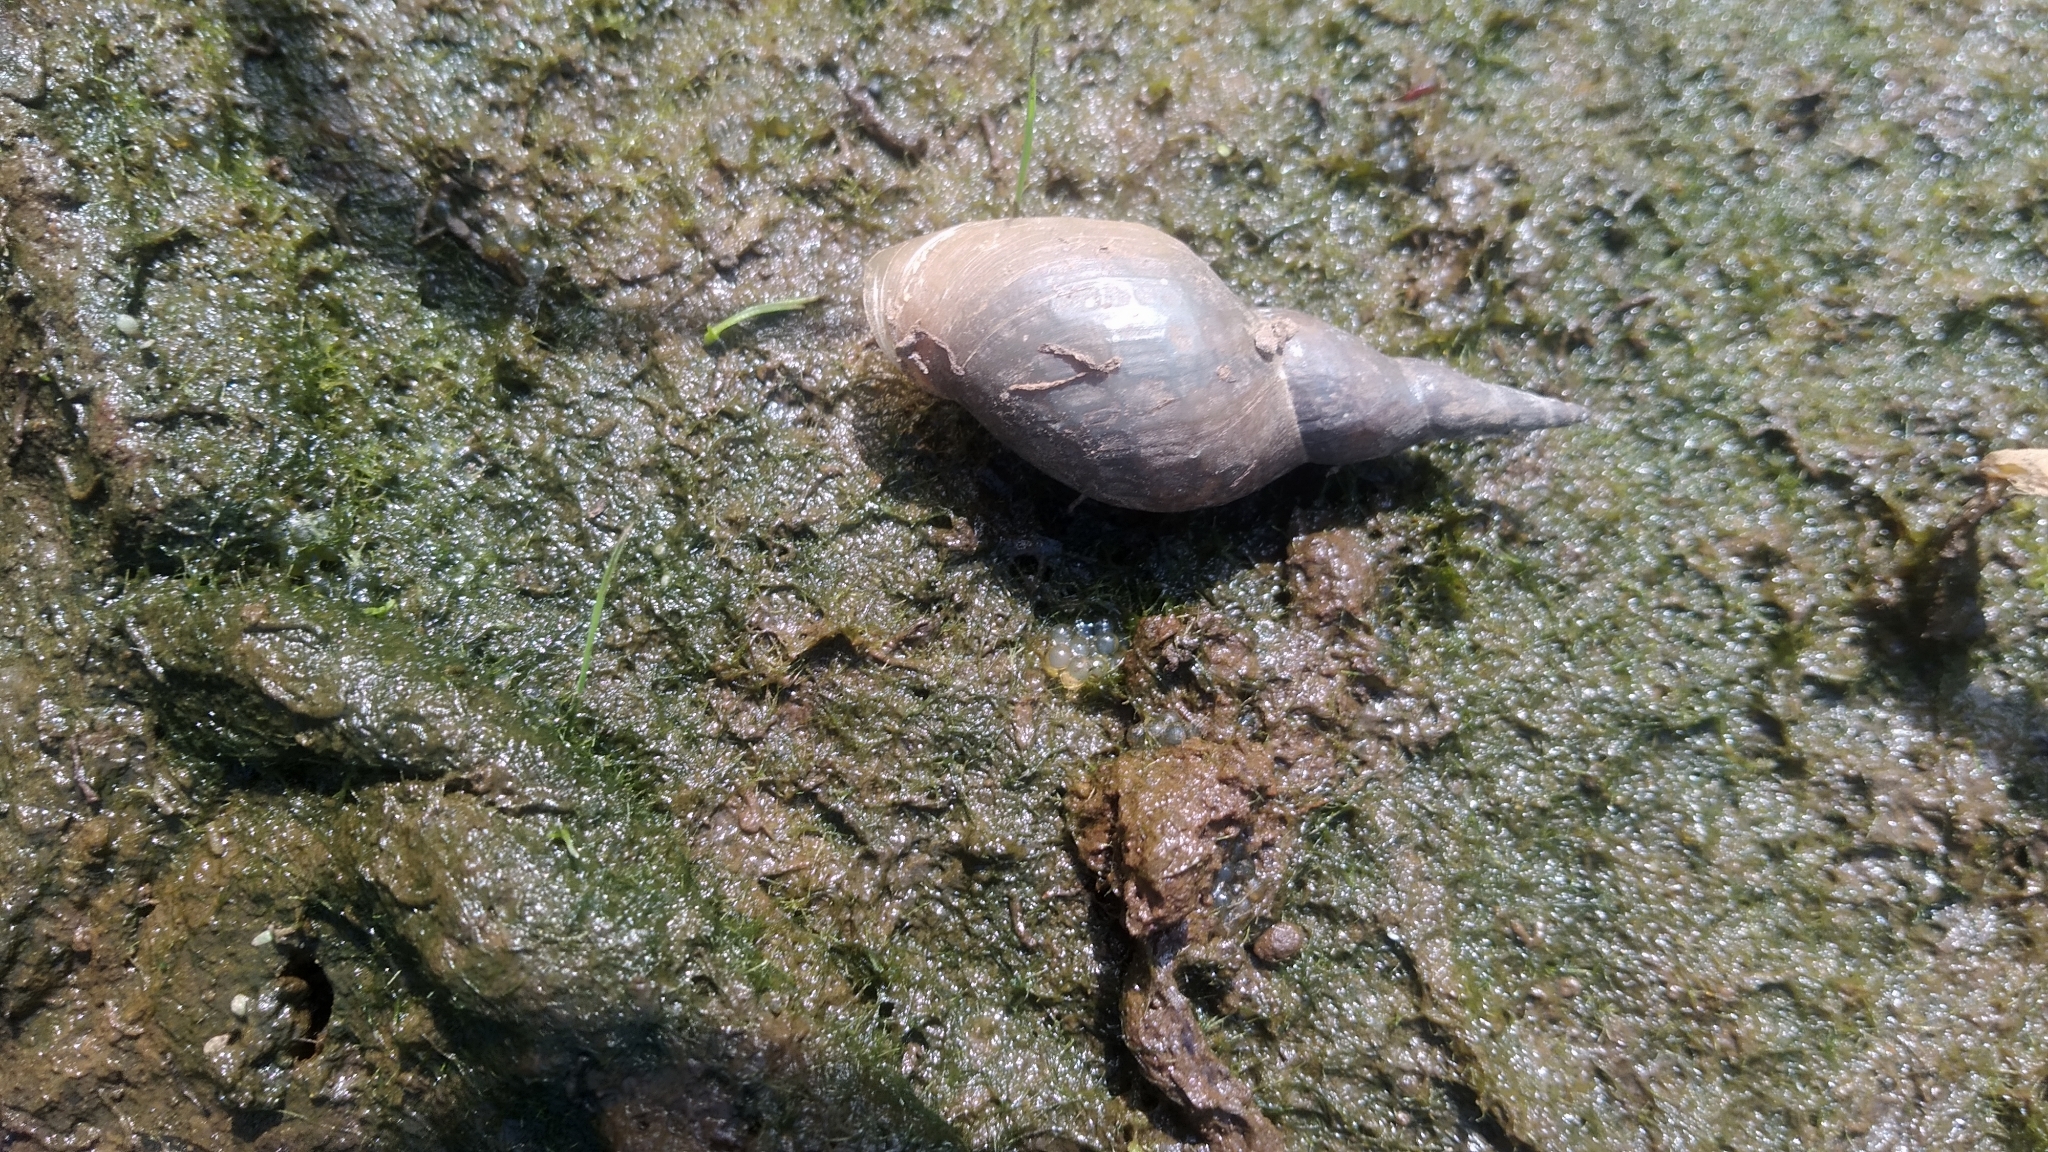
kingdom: Animalia
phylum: Mollusca
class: Gastropoda
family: Lymnaeidae
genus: Lymnaea
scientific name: Lymnaea stagnalis
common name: Great pond snail
